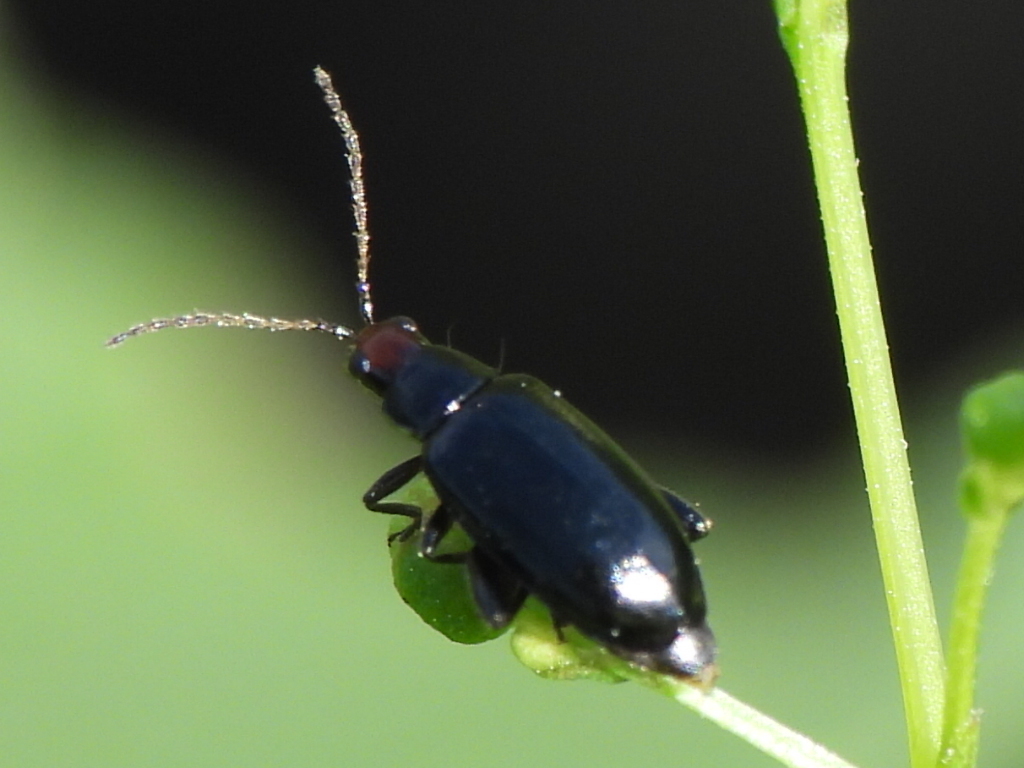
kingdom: Animalia
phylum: Arthropoda
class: Insecta
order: Coleoptera
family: Chrysomelidae
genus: Systena
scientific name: Systena frontalis
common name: Red-headed flea beetle
